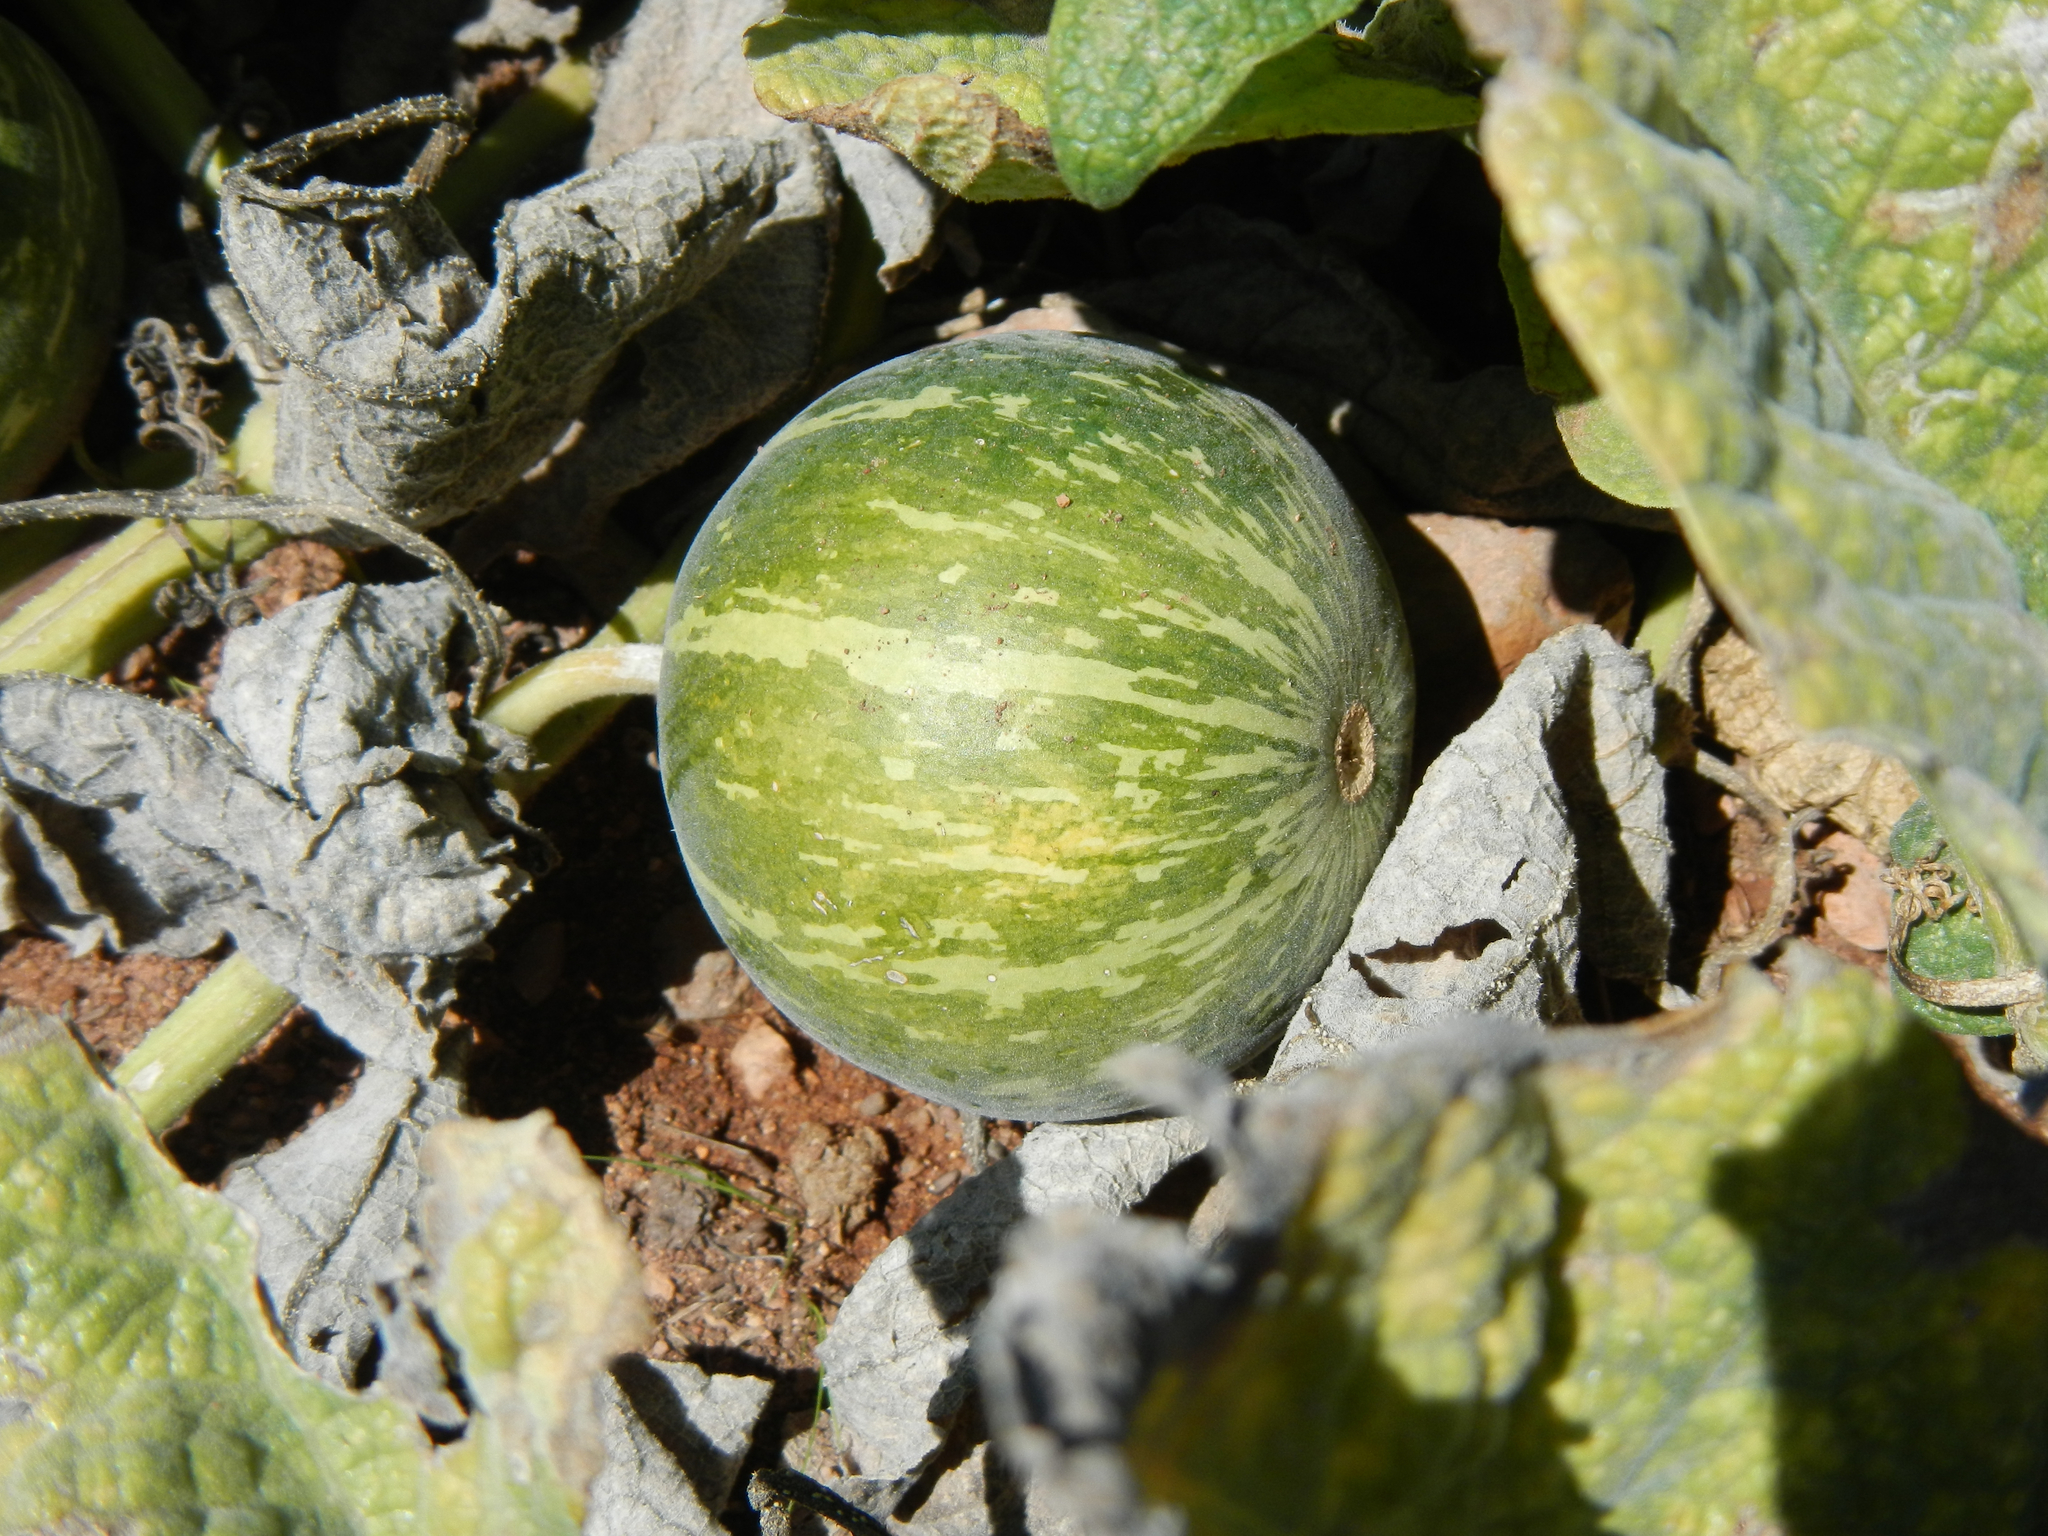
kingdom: Plantae
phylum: Tracheophyta
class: Magnoliopsida
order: Cucurbitales
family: Cucurbitaceae
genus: Cucurbita
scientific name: Cucurbita palmata
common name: Coyote-melon
